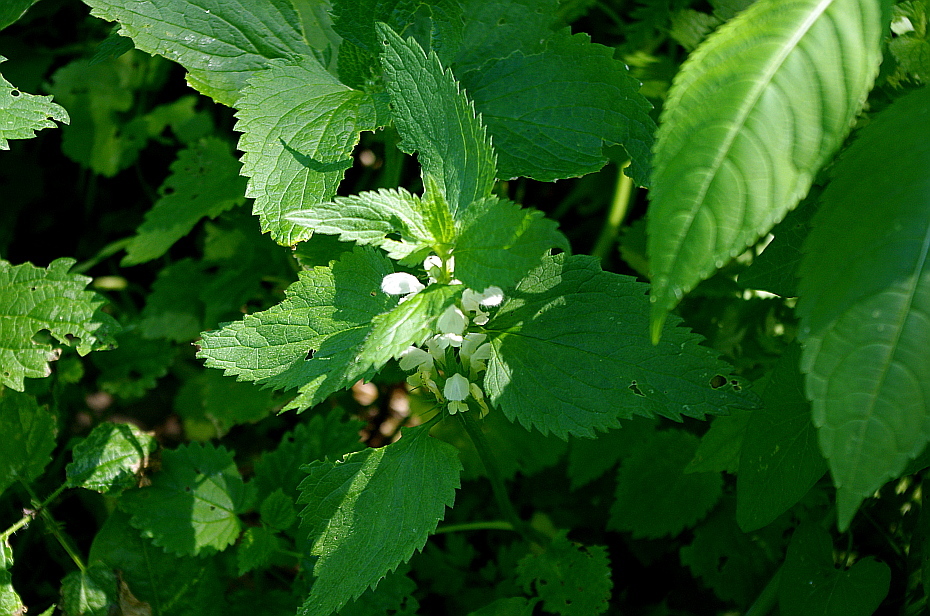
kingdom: Plantae
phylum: Tracheophyta
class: Magnoliopsida
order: Lamiales
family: Lamiaceae
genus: Lamium
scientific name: Lamium album
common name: White dead-nettle
